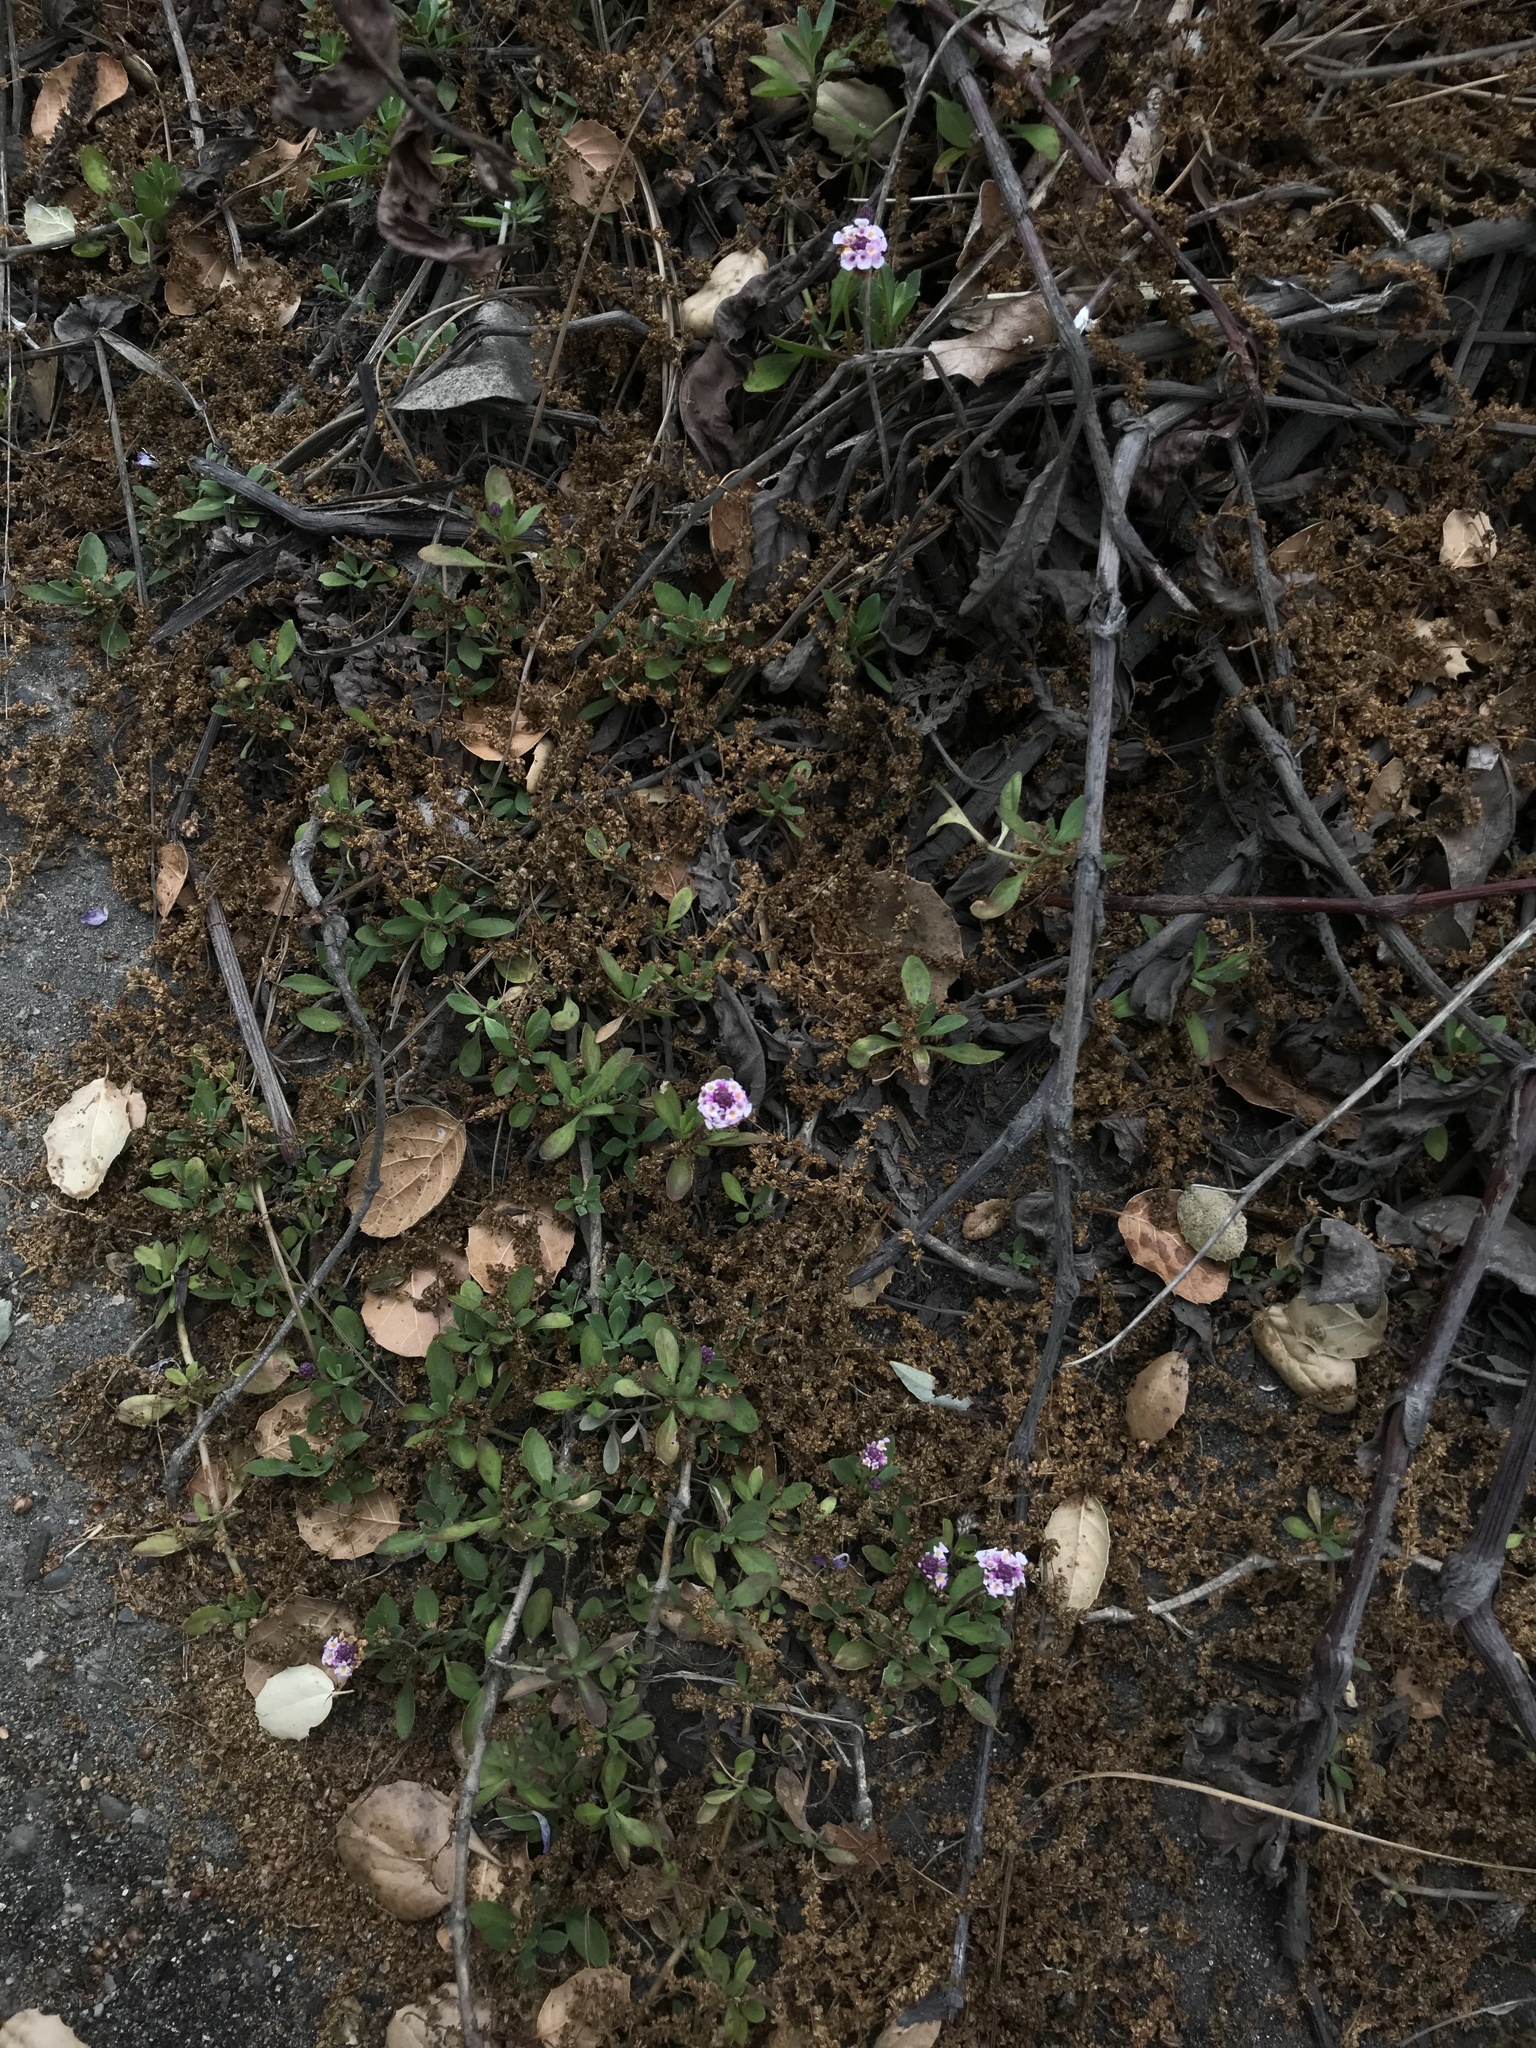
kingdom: Plantae
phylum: Tracheophyta
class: Magnoliopsida
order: Lamiales
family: Verbenaceae
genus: Phyla
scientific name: Phyla nodiflora
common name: Frogfruit
